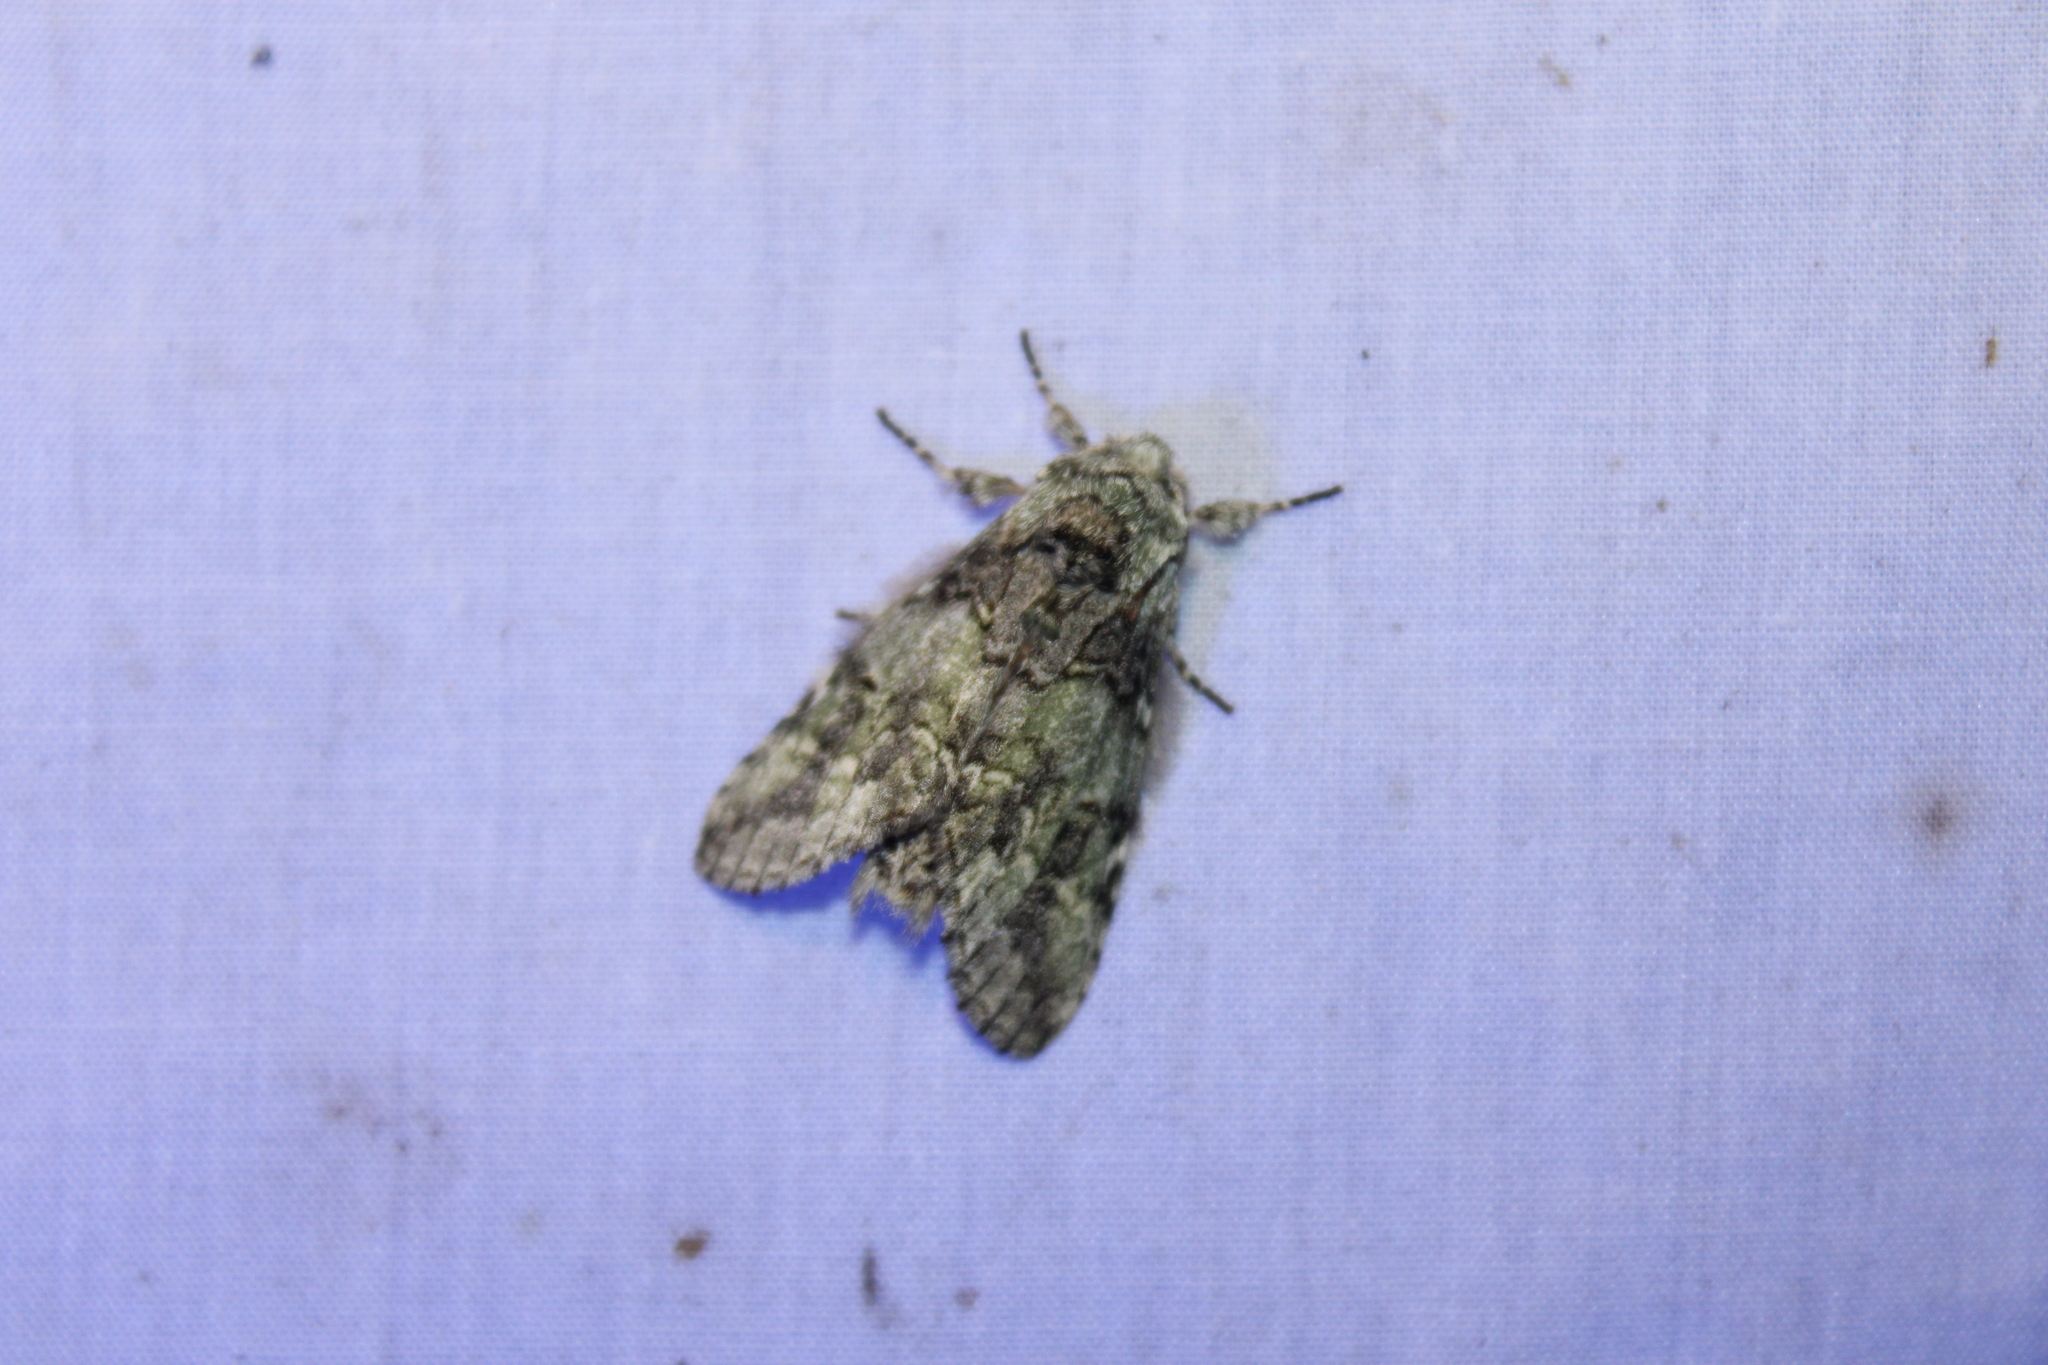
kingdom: Animalia
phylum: Arthropoda
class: Insecta
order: Lepidoptera
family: Notodontidae
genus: Macrurocampa
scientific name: Macrurocampa marthesia
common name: Mottled prominent
